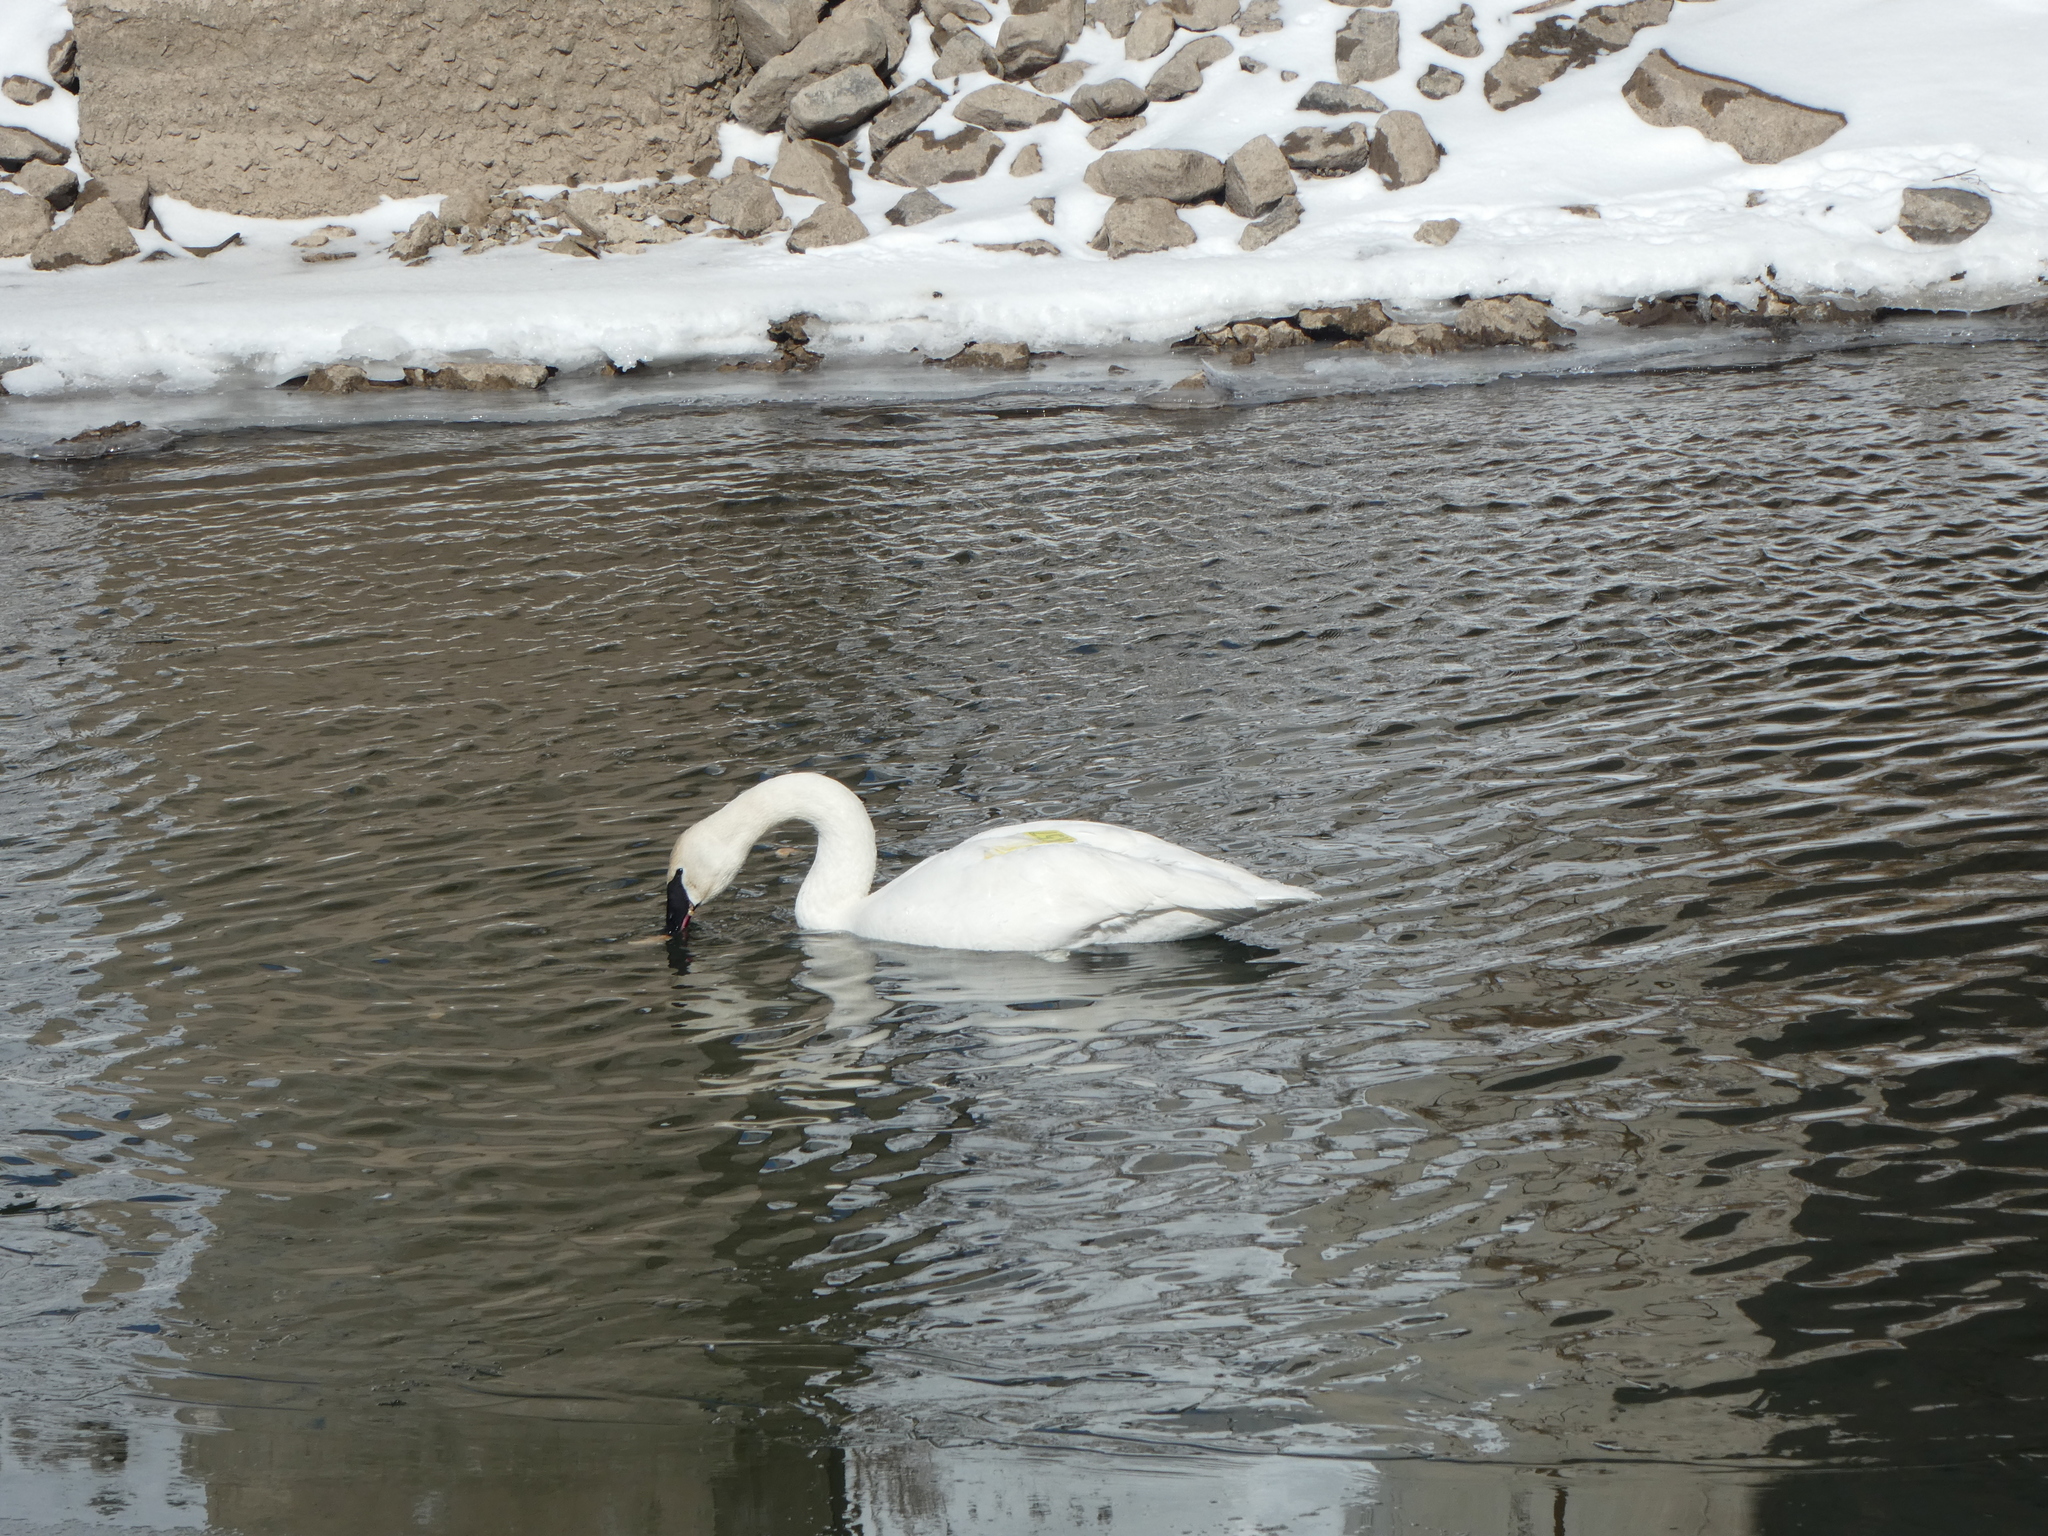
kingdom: Animalia
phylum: Chordata
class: Aves
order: Anseriformes
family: Anatidae
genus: Cygnus
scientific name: Cygnus buccinator
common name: Trumpeter swan
